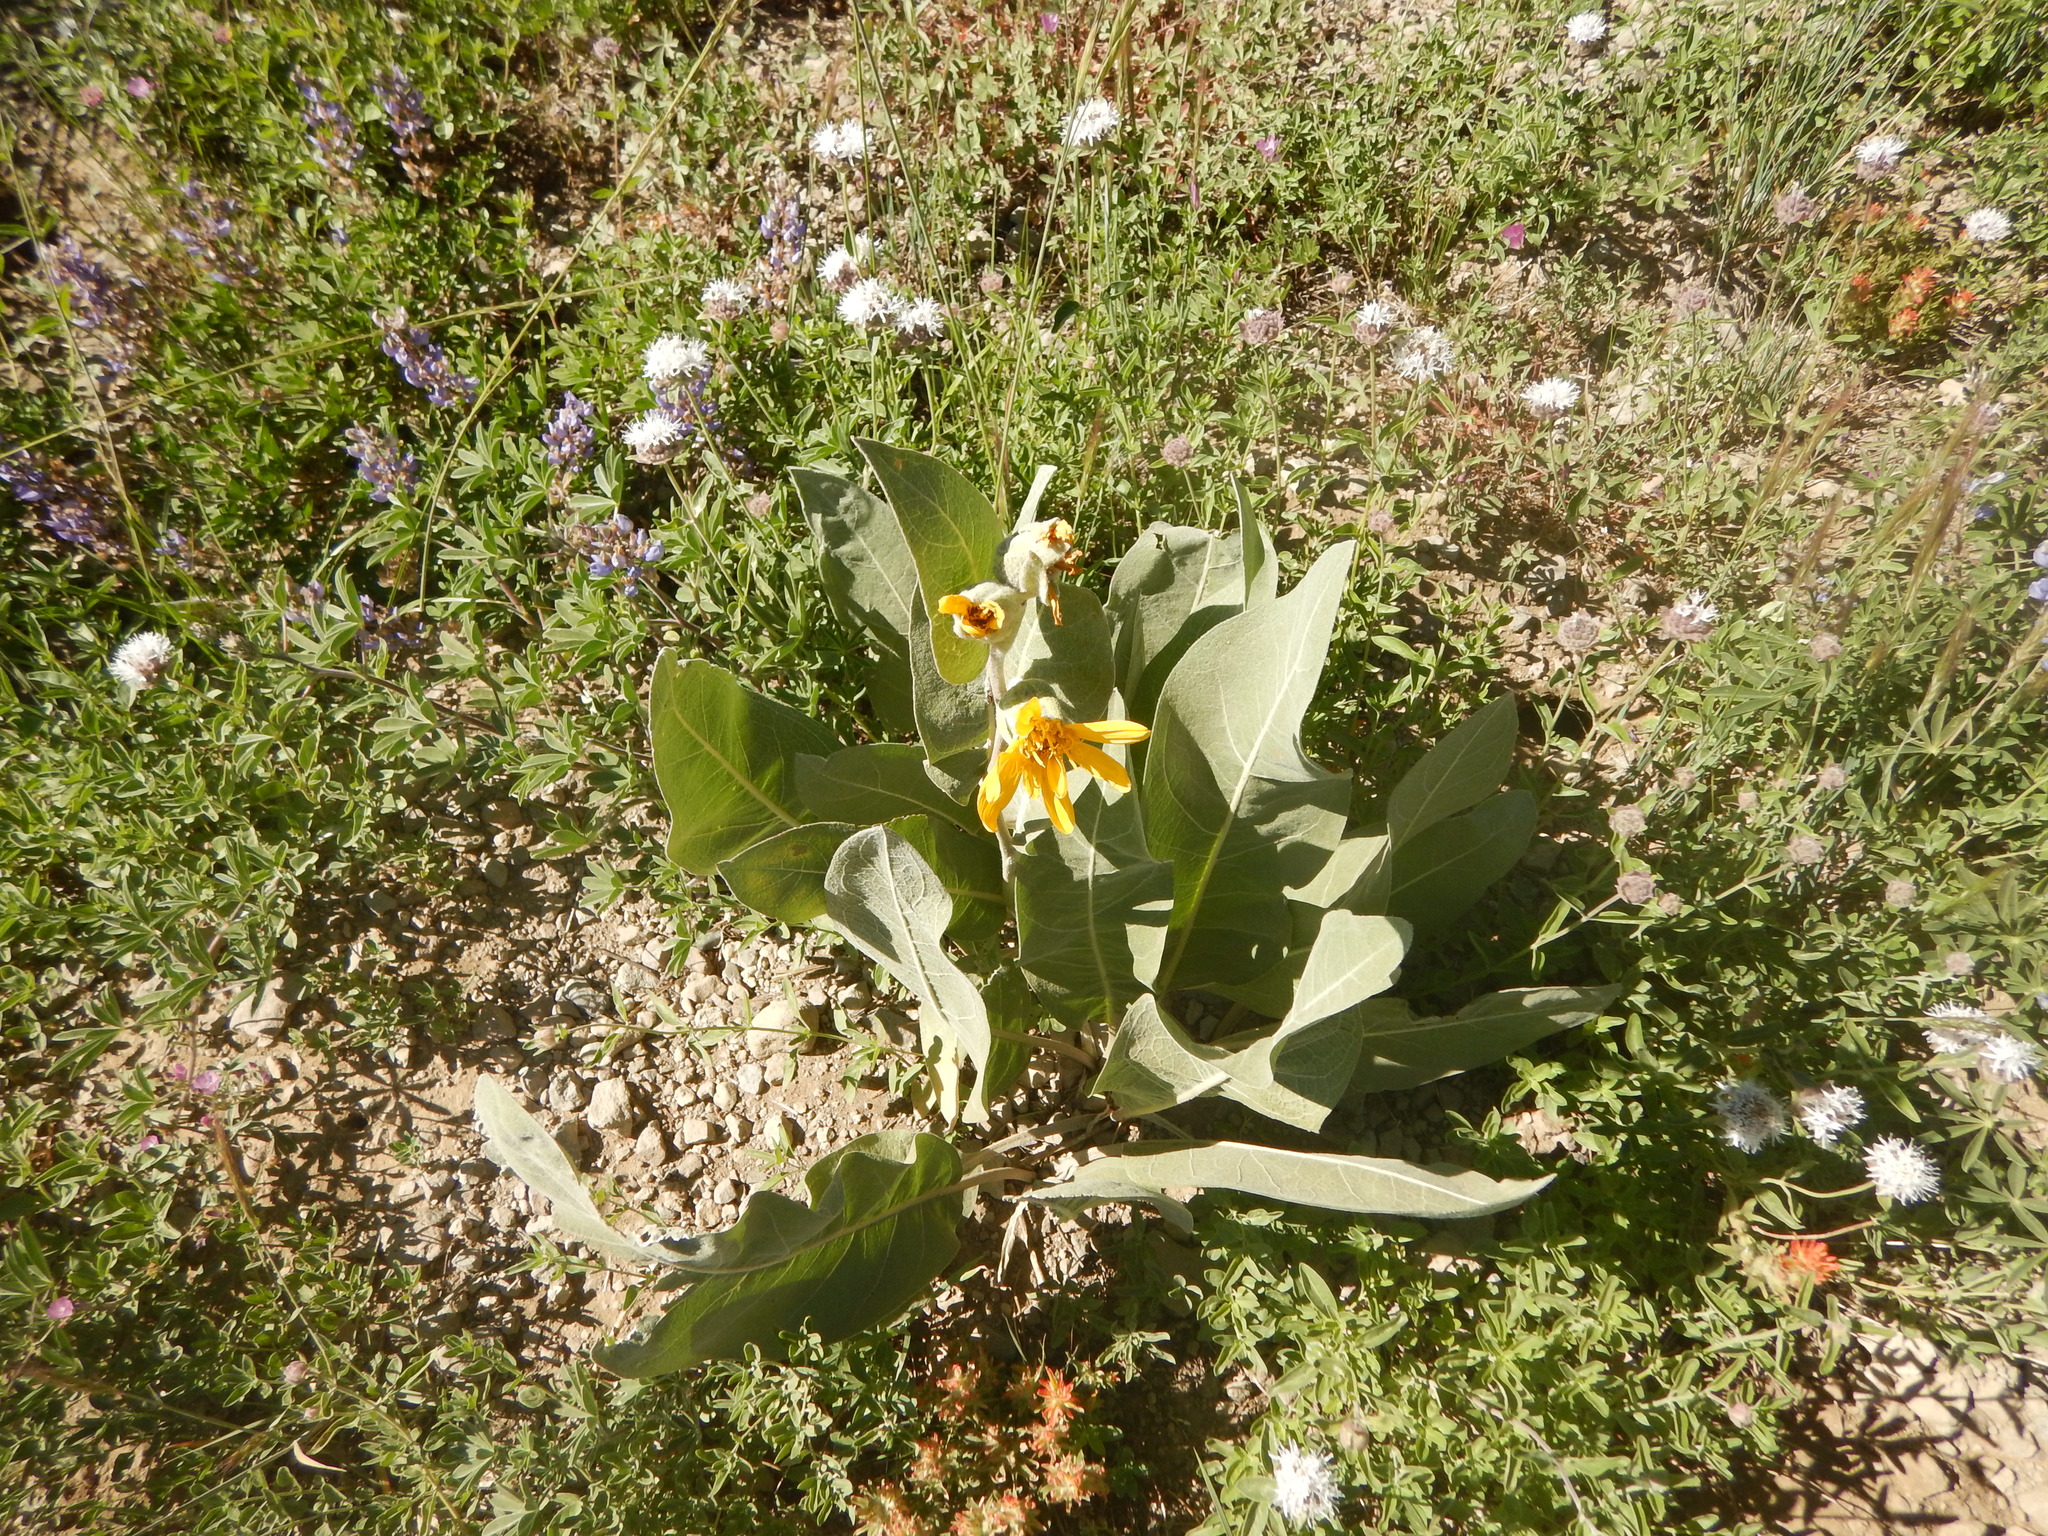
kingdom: Plantae
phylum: Tracheophyta
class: Magnoliopsida
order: Asterales
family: Asteraceae
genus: Wyethia
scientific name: Wyethia mollis
